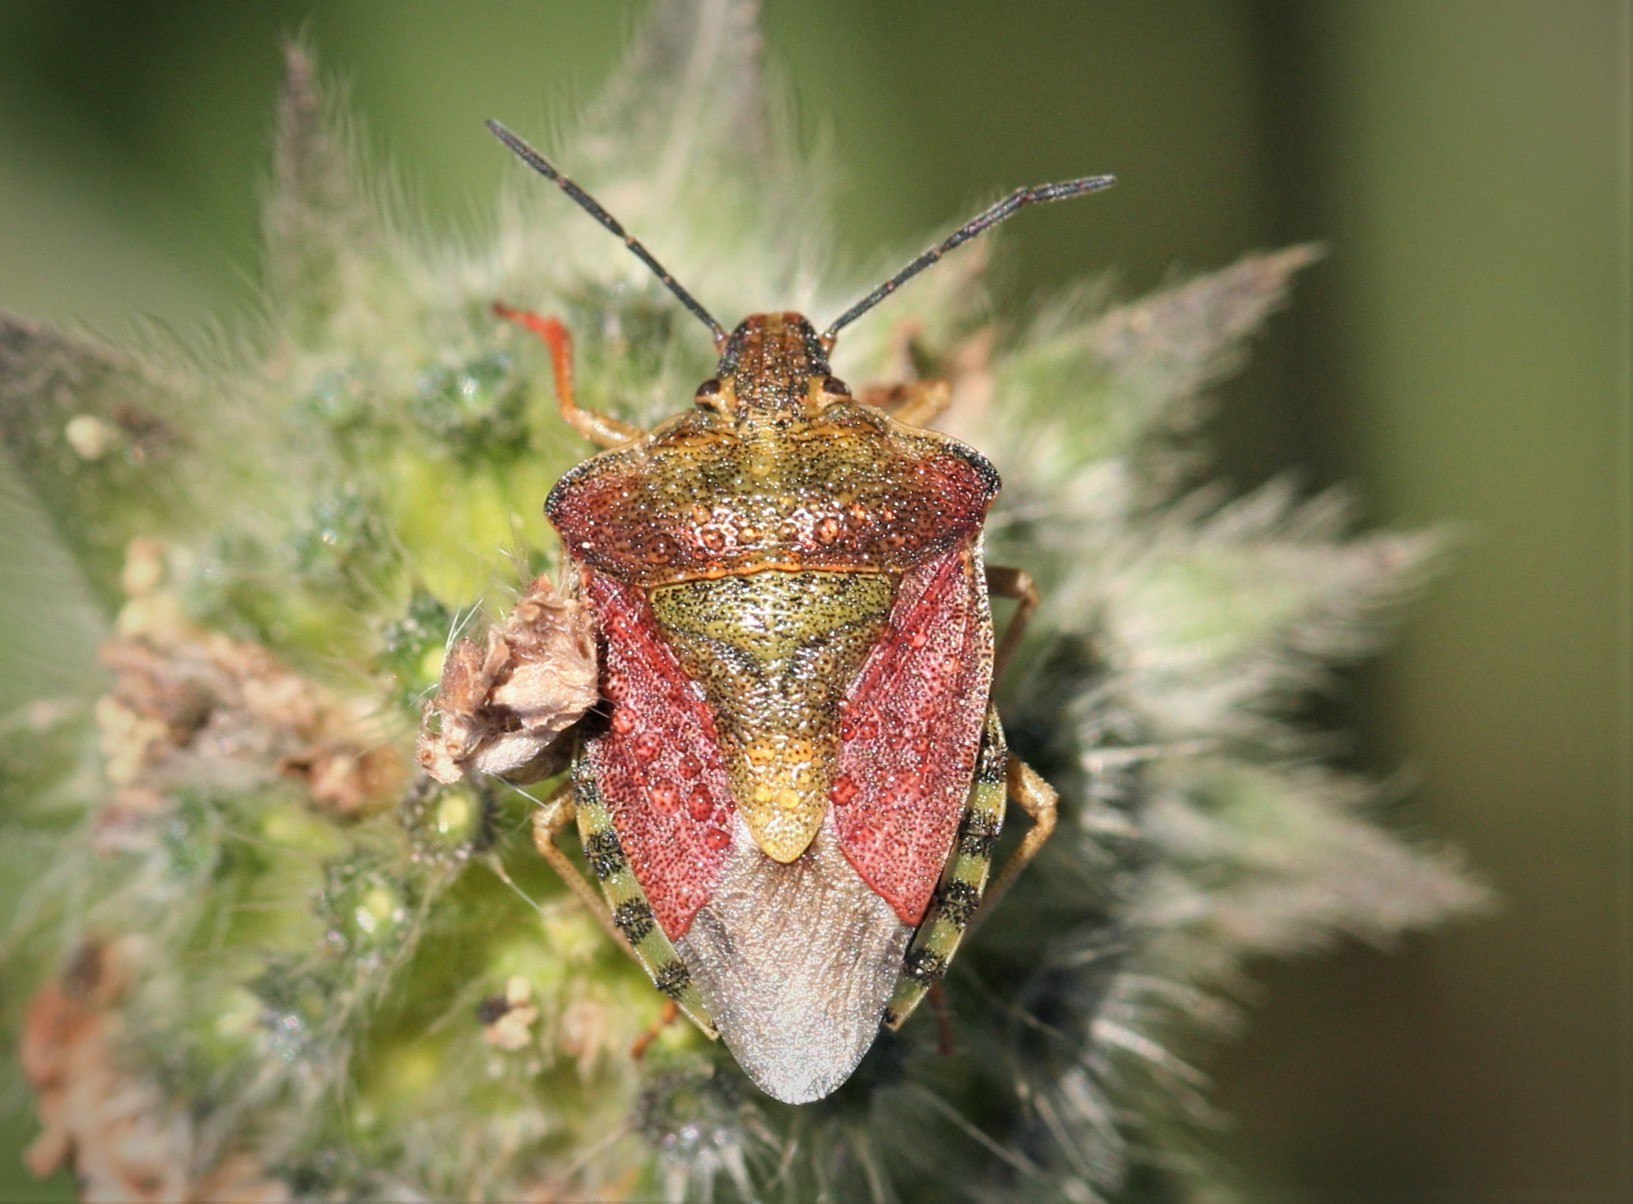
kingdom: Animalia
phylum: Arthropoda
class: Insecta
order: Hemiptera
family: Pentatomidae
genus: Carpocoris
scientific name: Carpocoris purpureipennis
